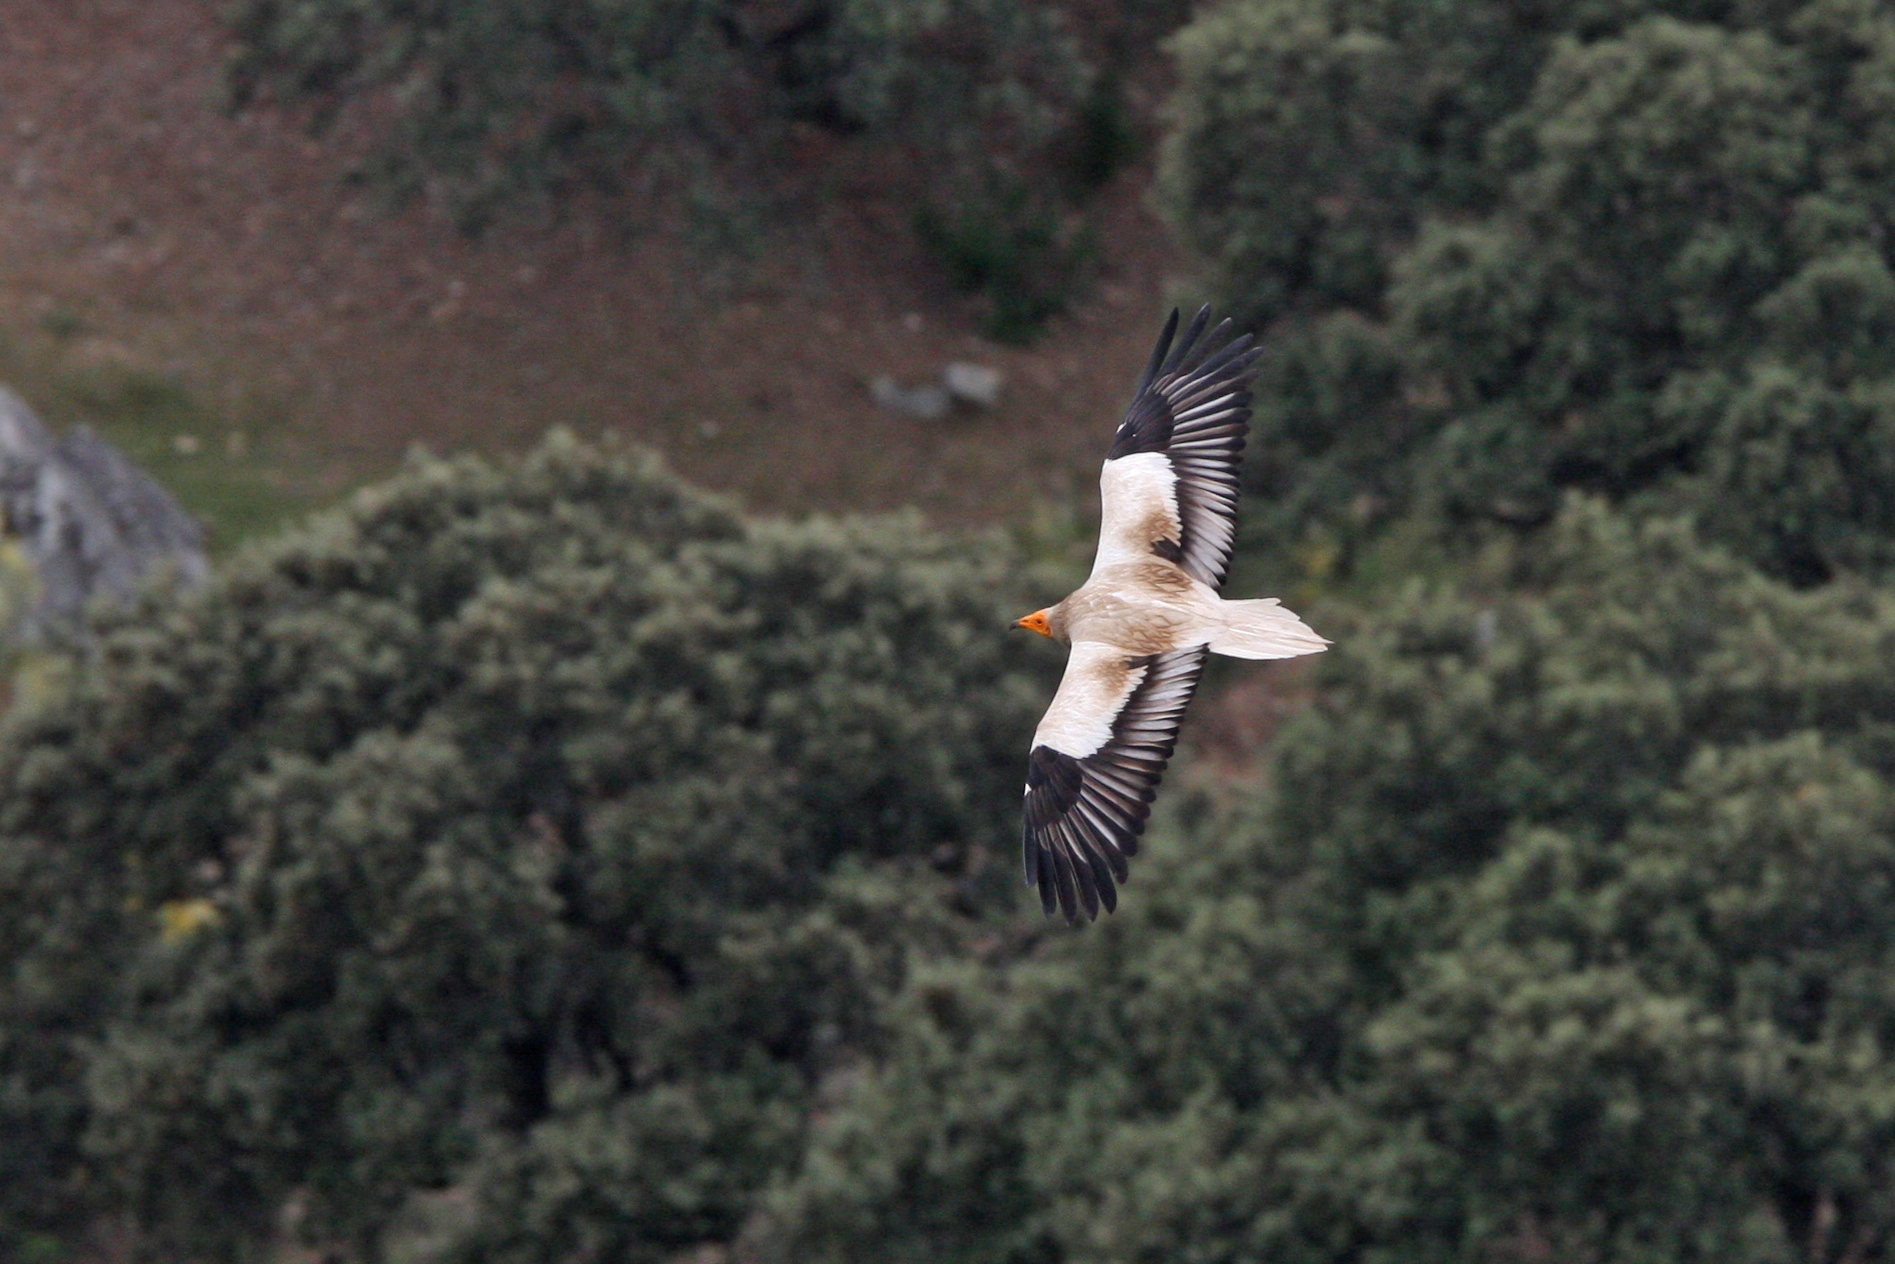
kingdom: Animalia
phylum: Chordata
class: Aves
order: Accipitriformes
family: Accipitridae
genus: Neophron
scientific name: Neophron percnopterus
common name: Egyptian vulture
